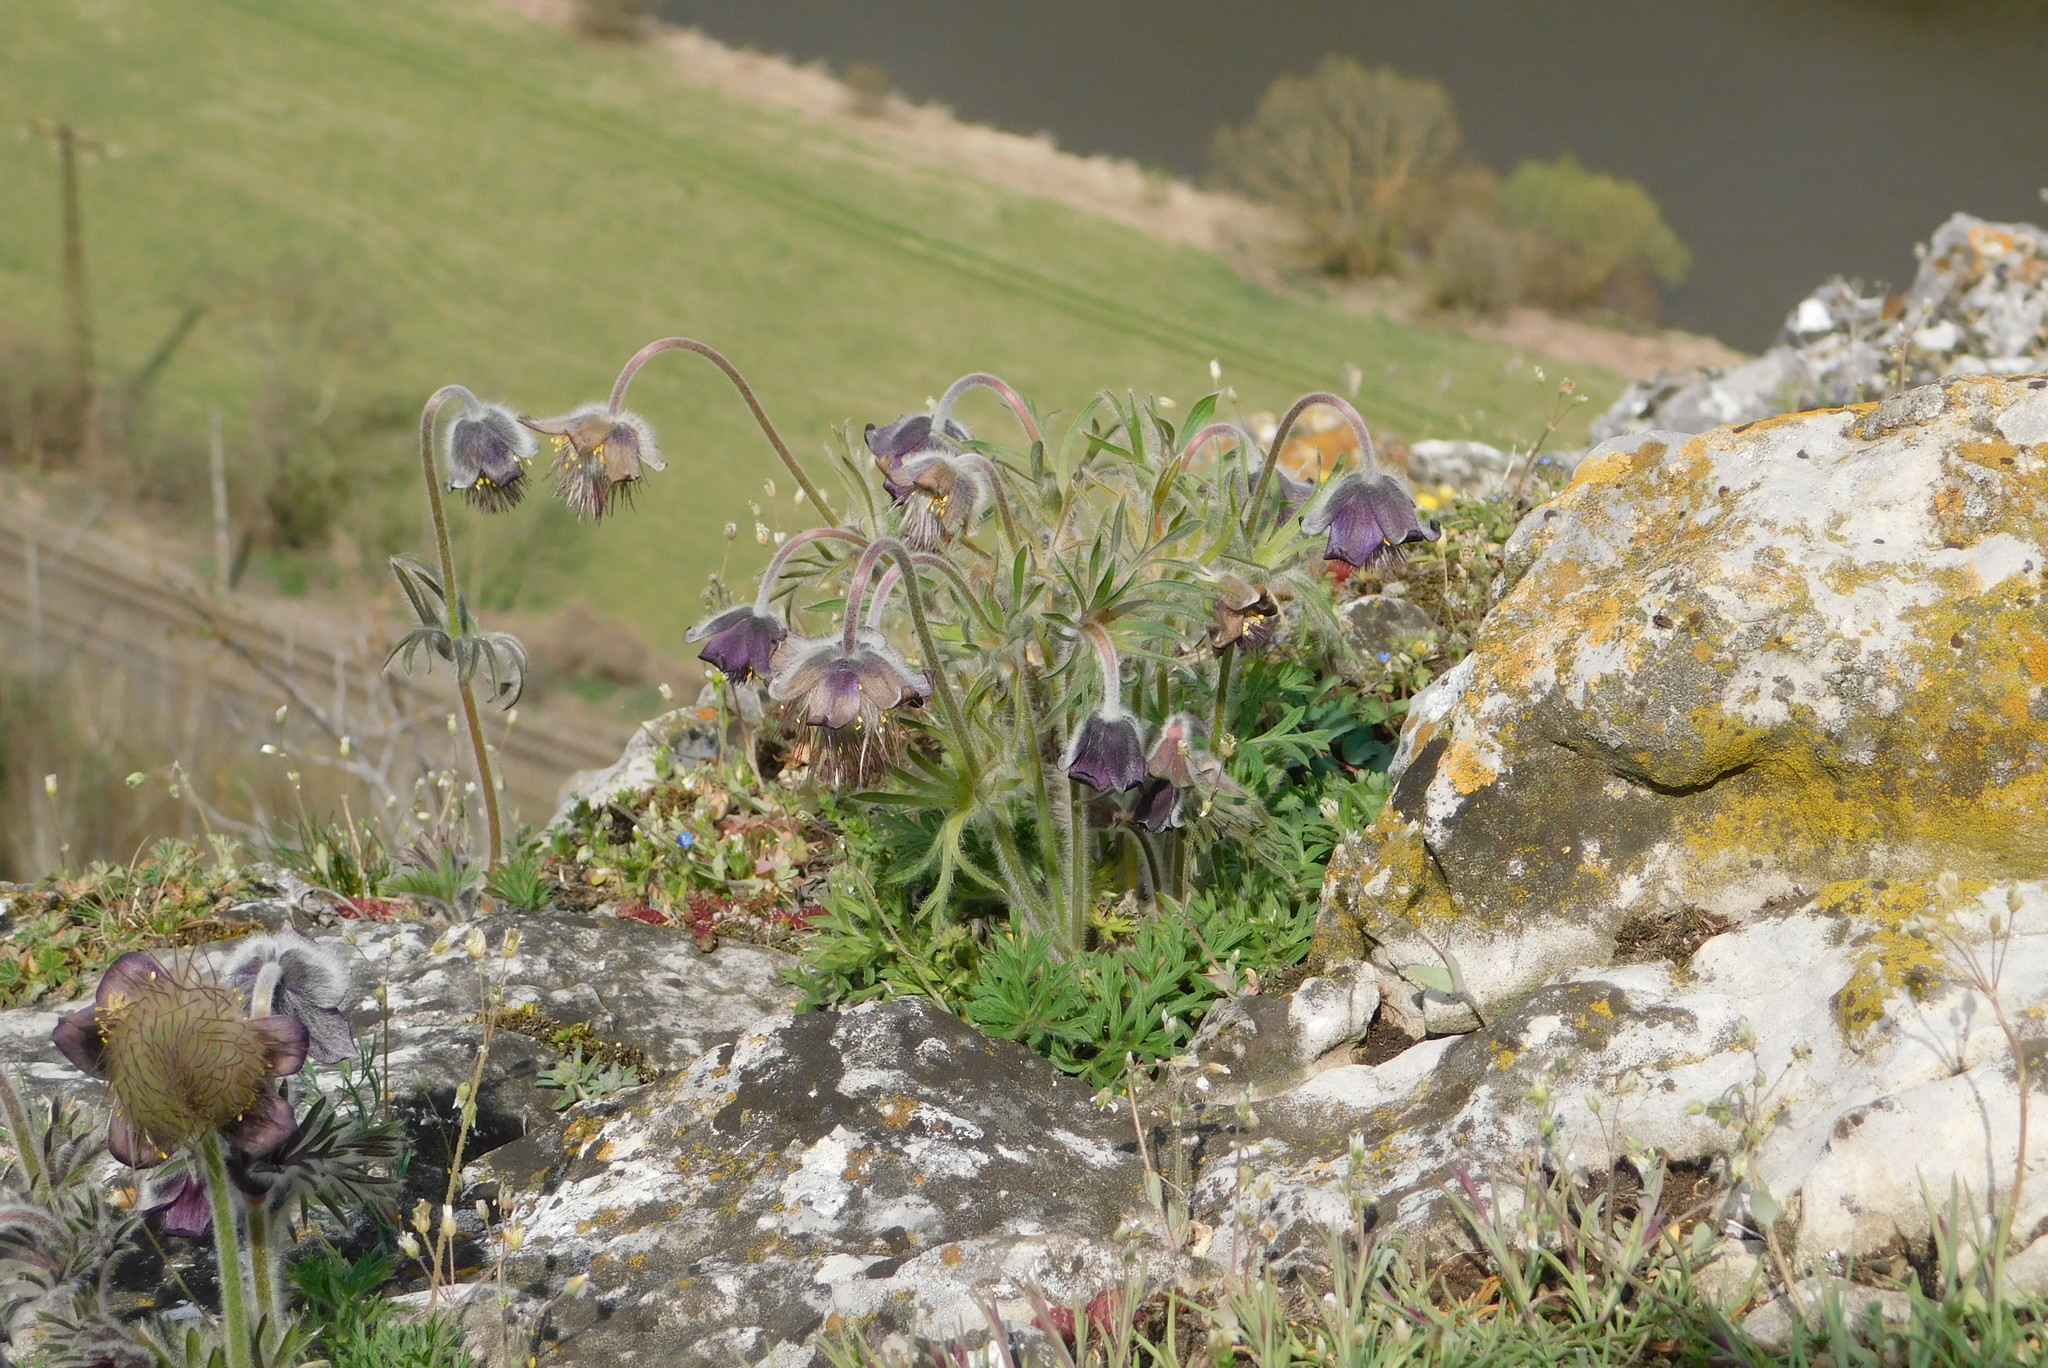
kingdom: Plantae
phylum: Tracheophyta
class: Magnoliopsida
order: Ranunculales
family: Ranunculaceae
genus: Pulsatilla
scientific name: Pulsatilla pratensis
